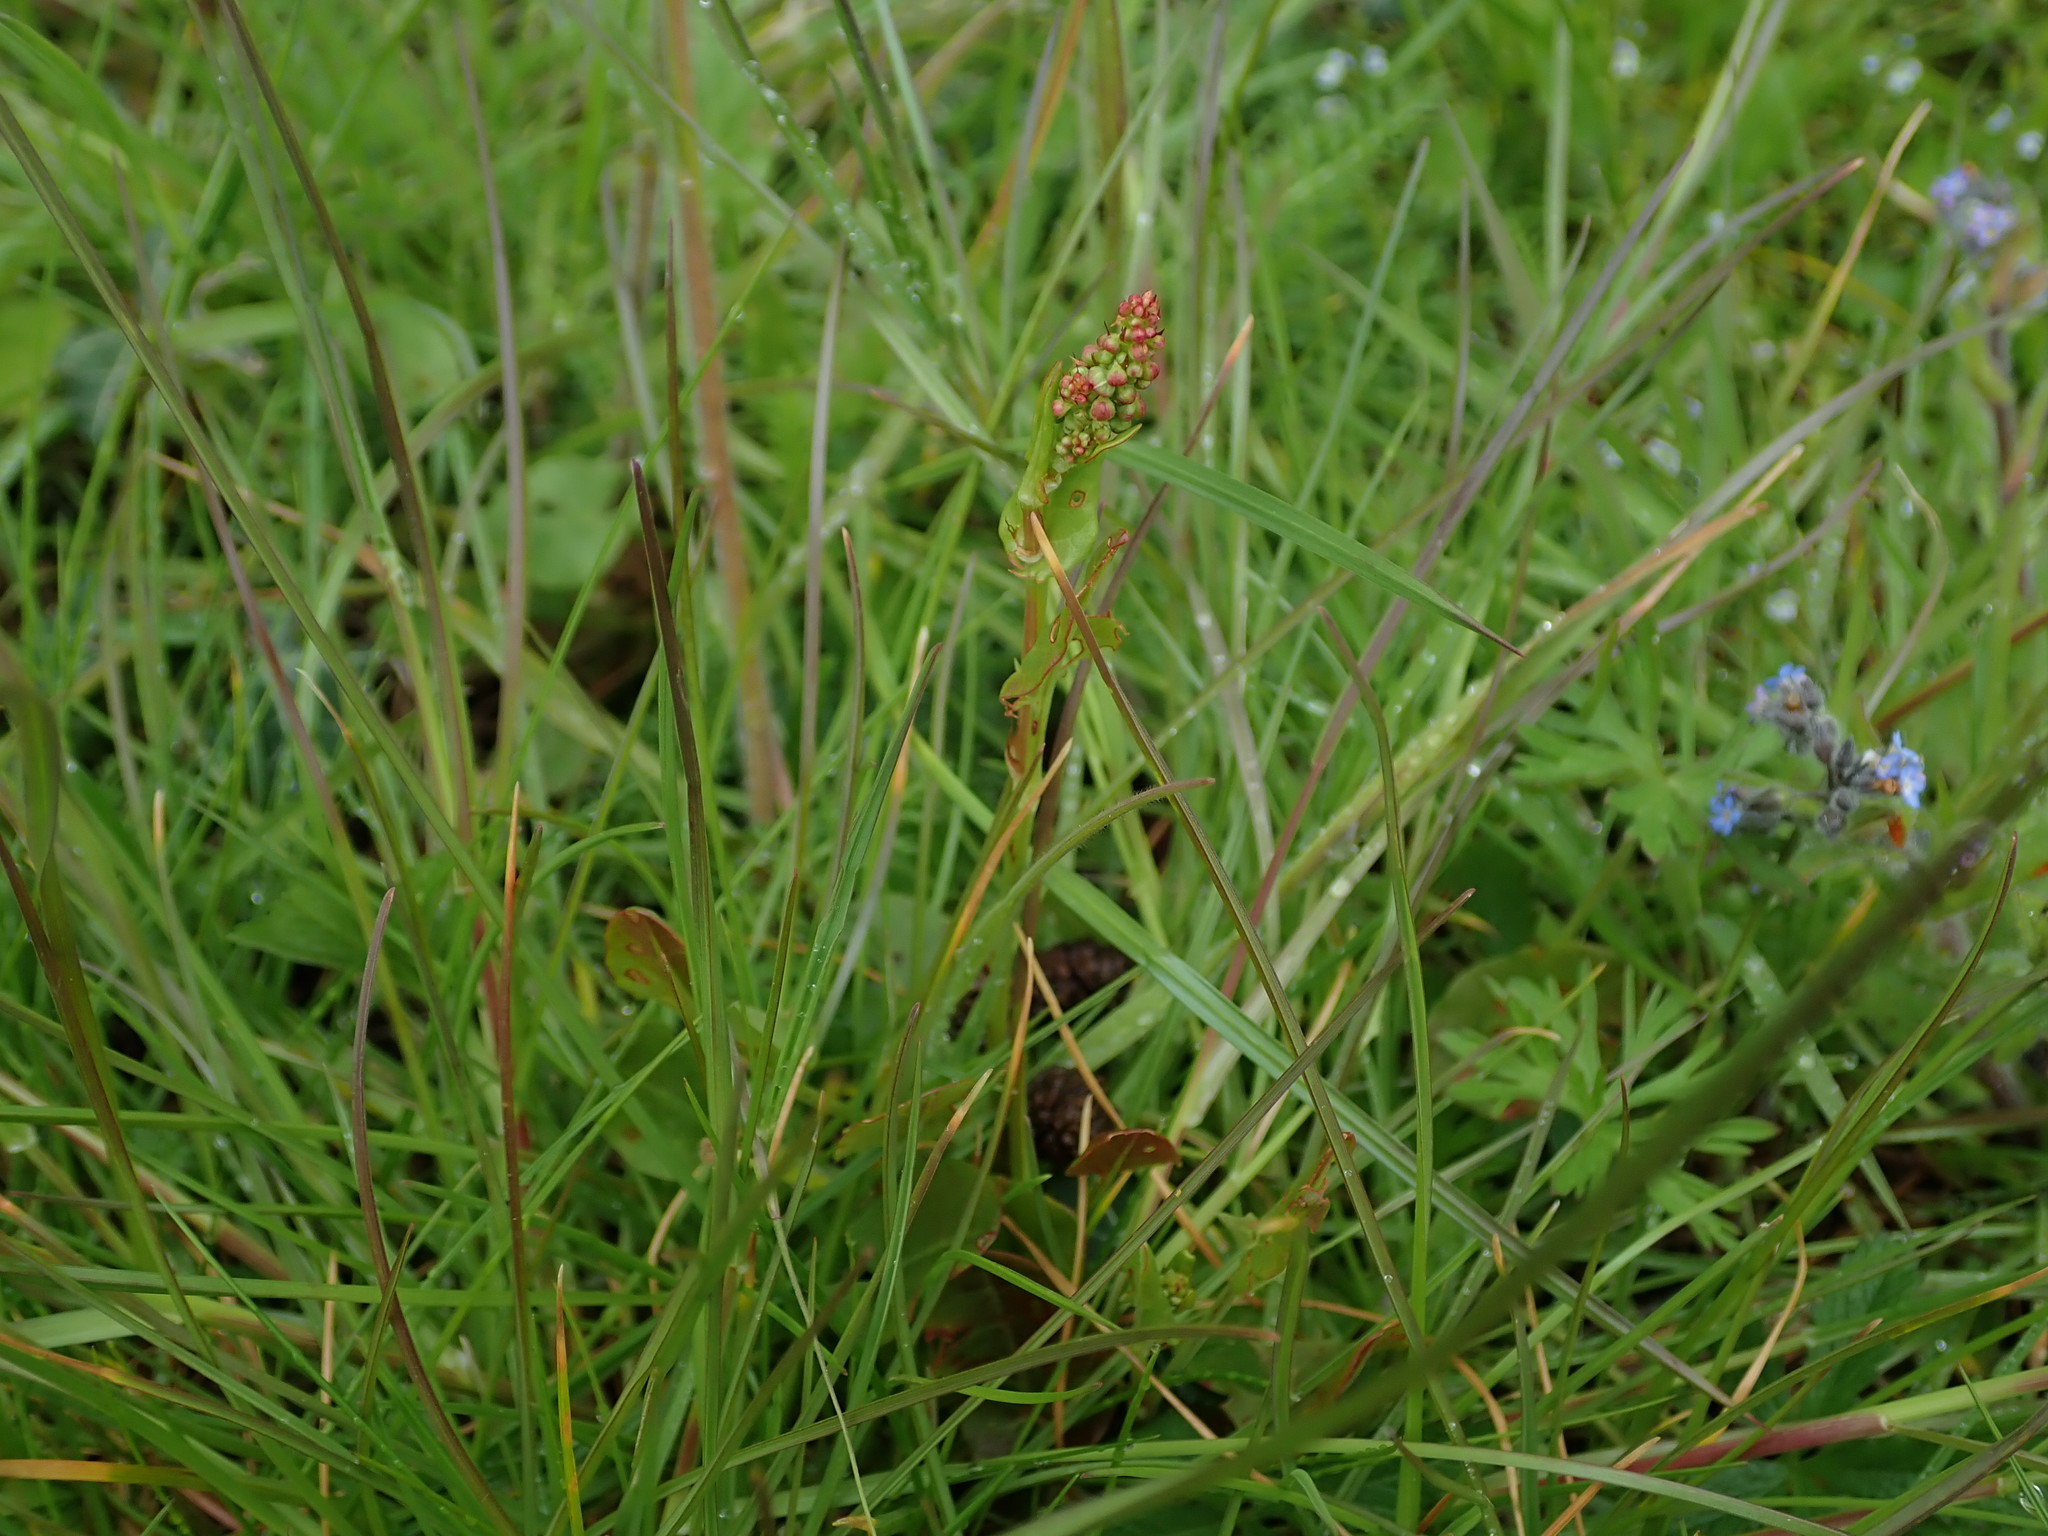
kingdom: Plantae
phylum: Tracheophyta
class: Magnoliopsida
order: Caryophyllales
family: Polygonaceae
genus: Rumex
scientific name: Rumex acetosa
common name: Garden sorrel
